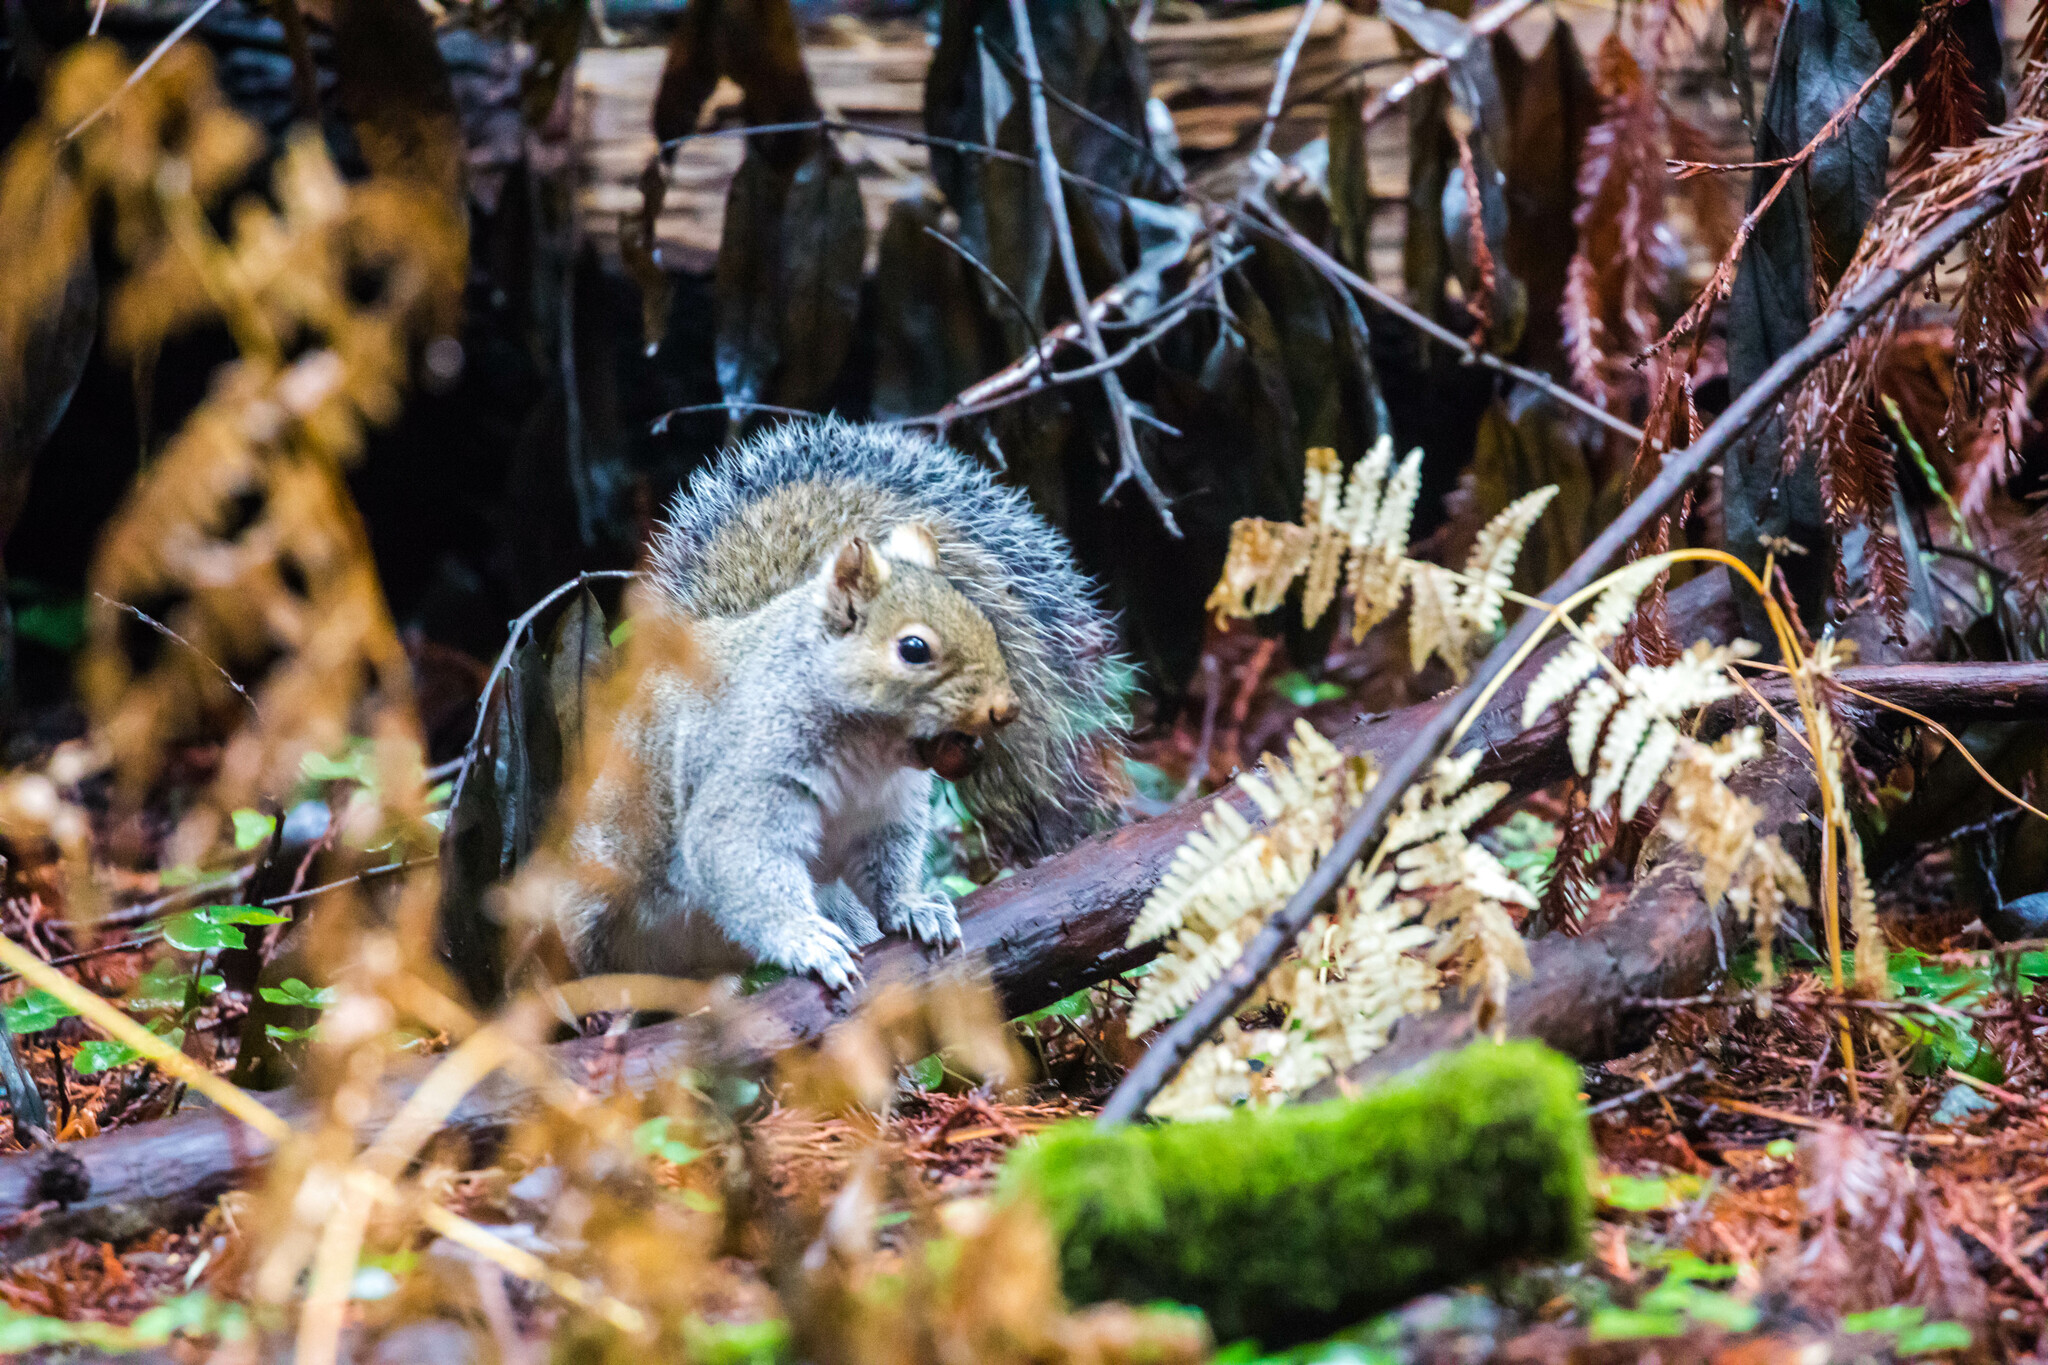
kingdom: Animalia
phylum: Chordata
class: Mammalia
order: Rodentia
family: Sciuridae
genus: Sciurus
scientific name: Sciurus carolinensis
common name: Eastern gray squirrel
